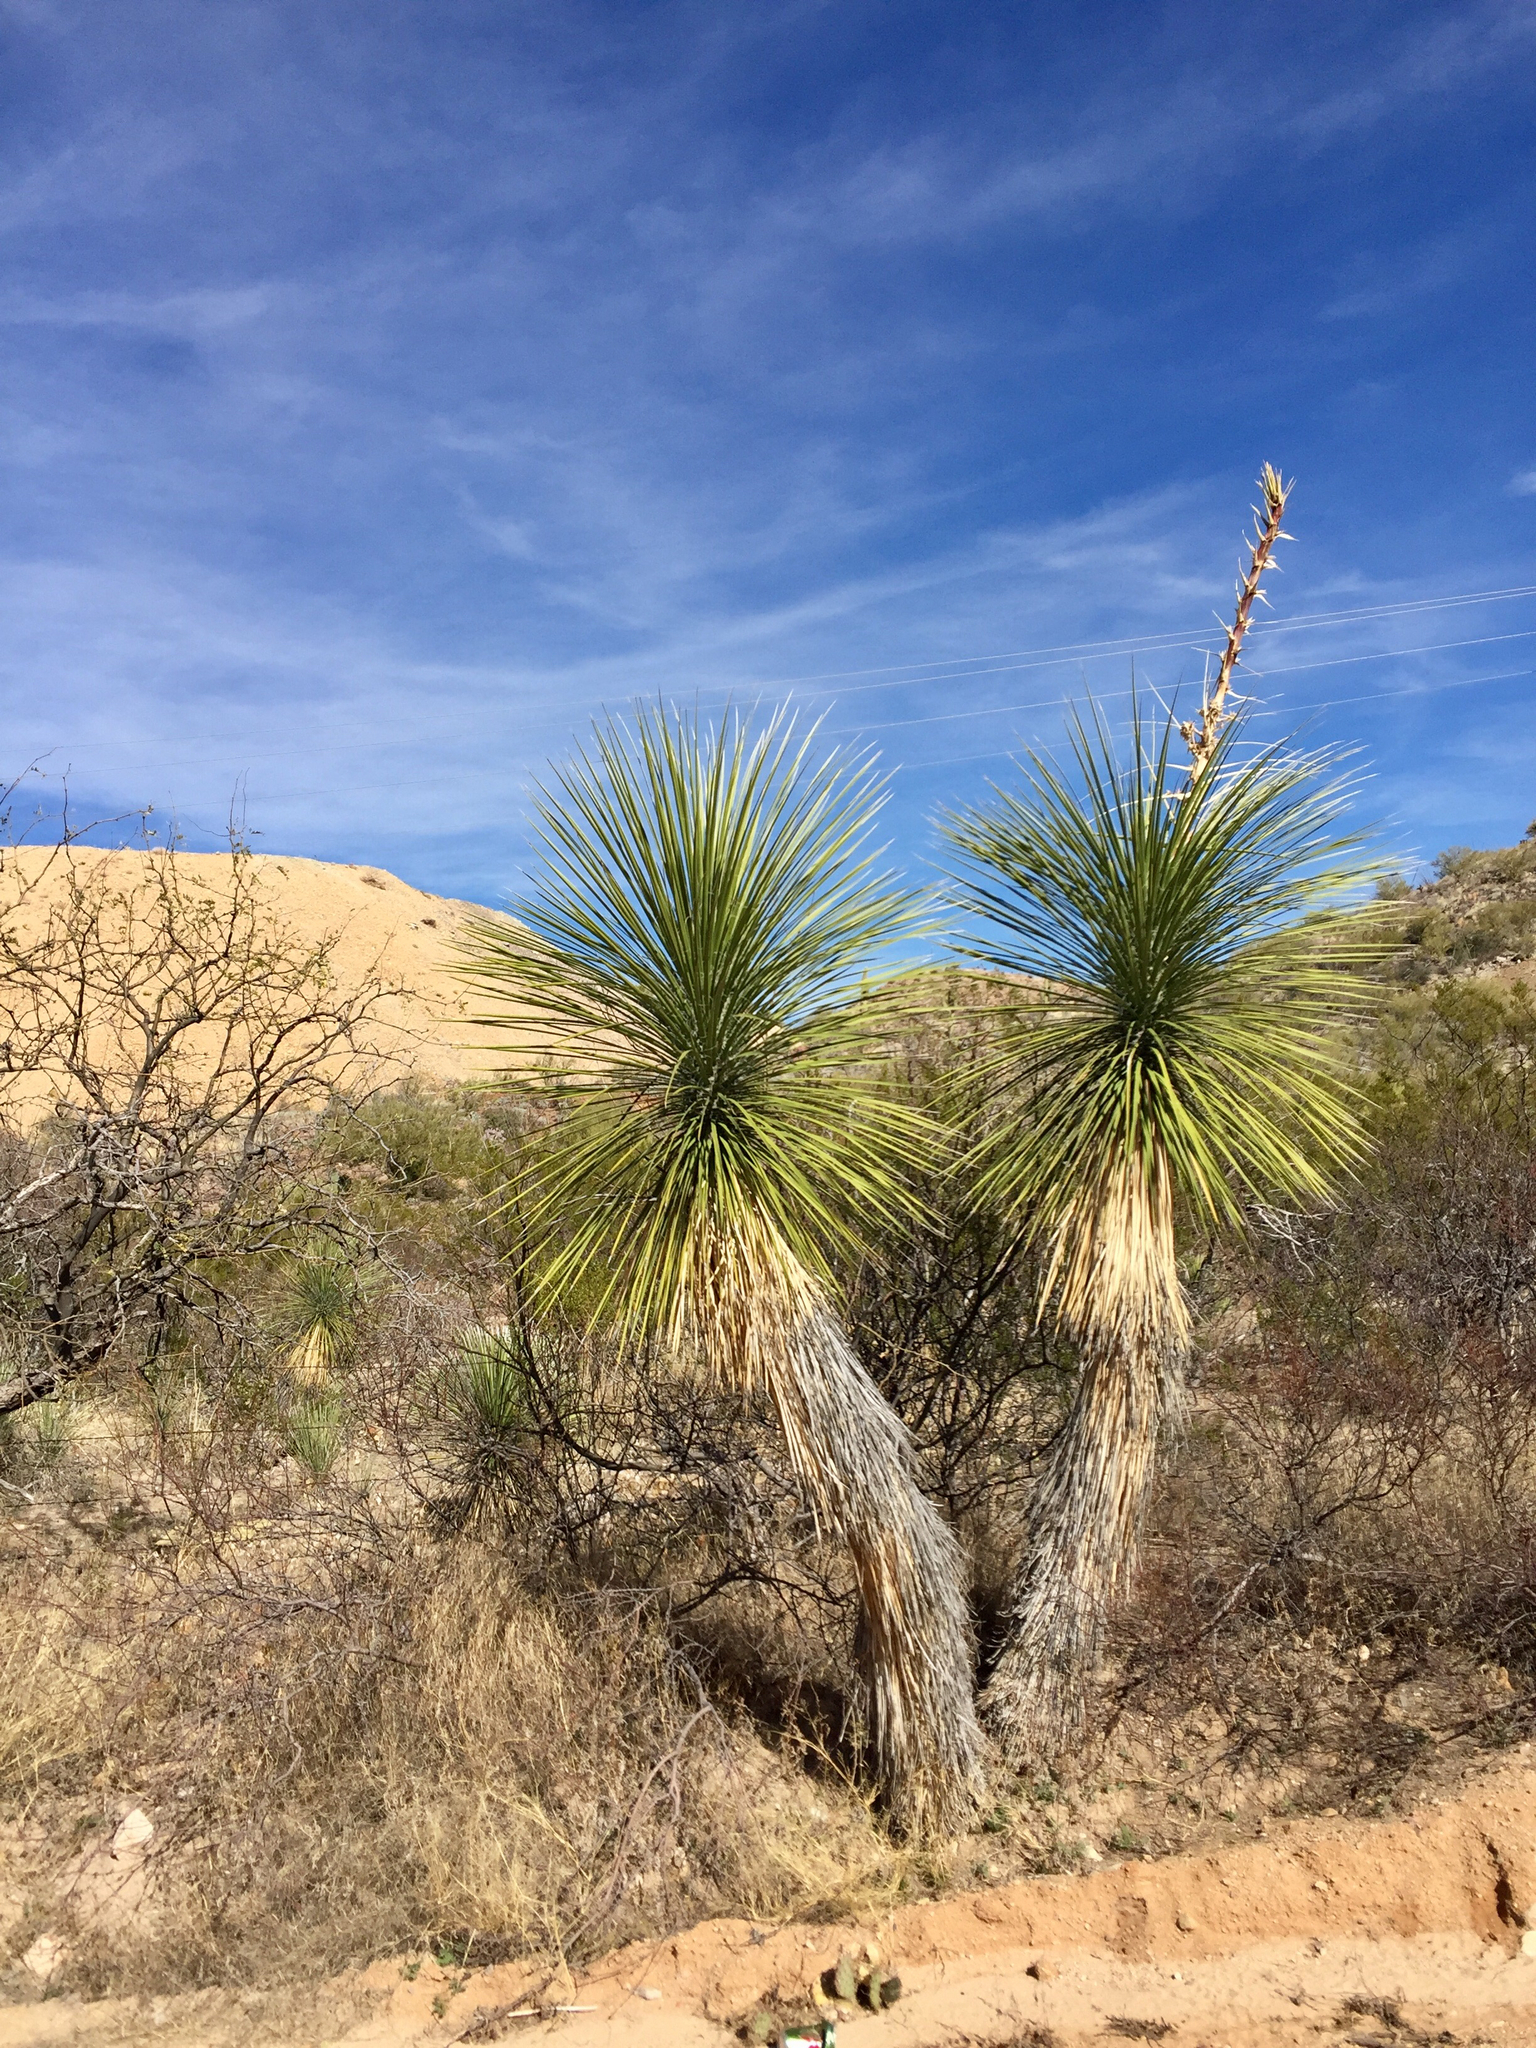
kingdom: Plantae
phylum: Tracheophyta
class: Liliopsida
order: Asparagales
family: Asparagaceae
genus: Yucca
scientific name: Yucca elata
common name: Palmella
